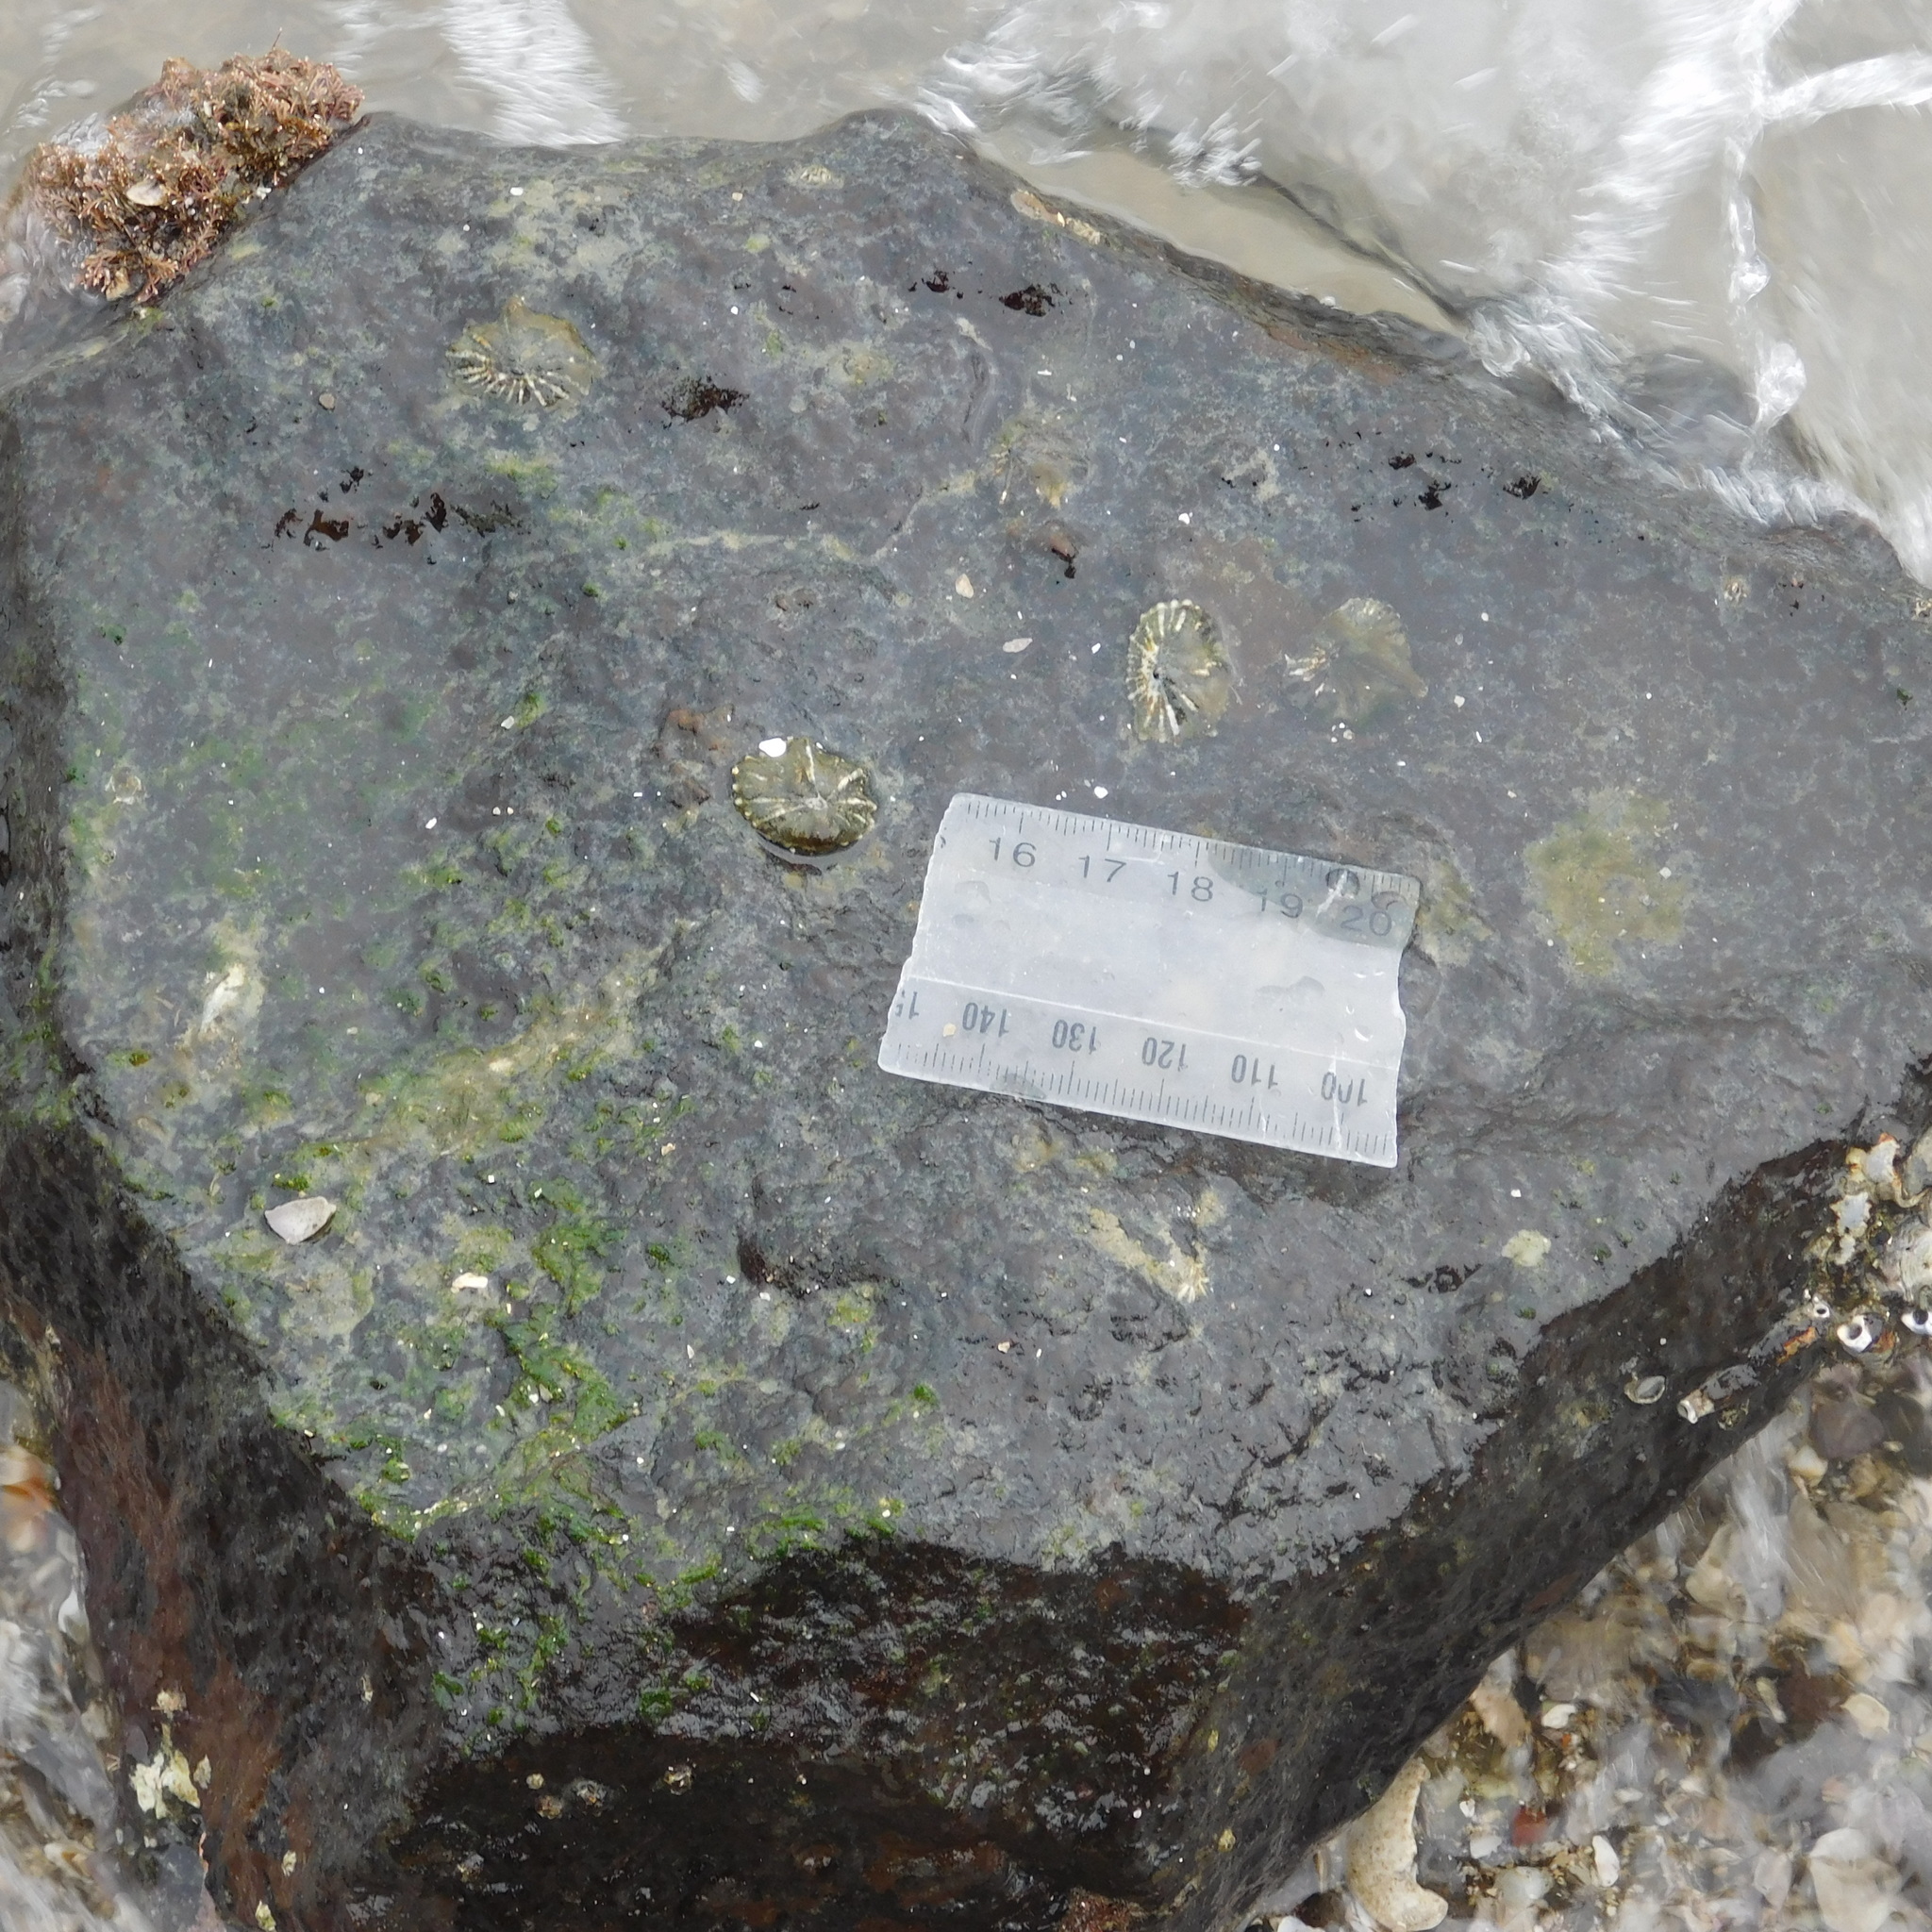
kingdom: Animalia
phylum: Mollusca
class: Gastropoda
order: Siphonariida
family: Siphonariidae
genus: Siphonaria
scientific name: Siphonaria australis
